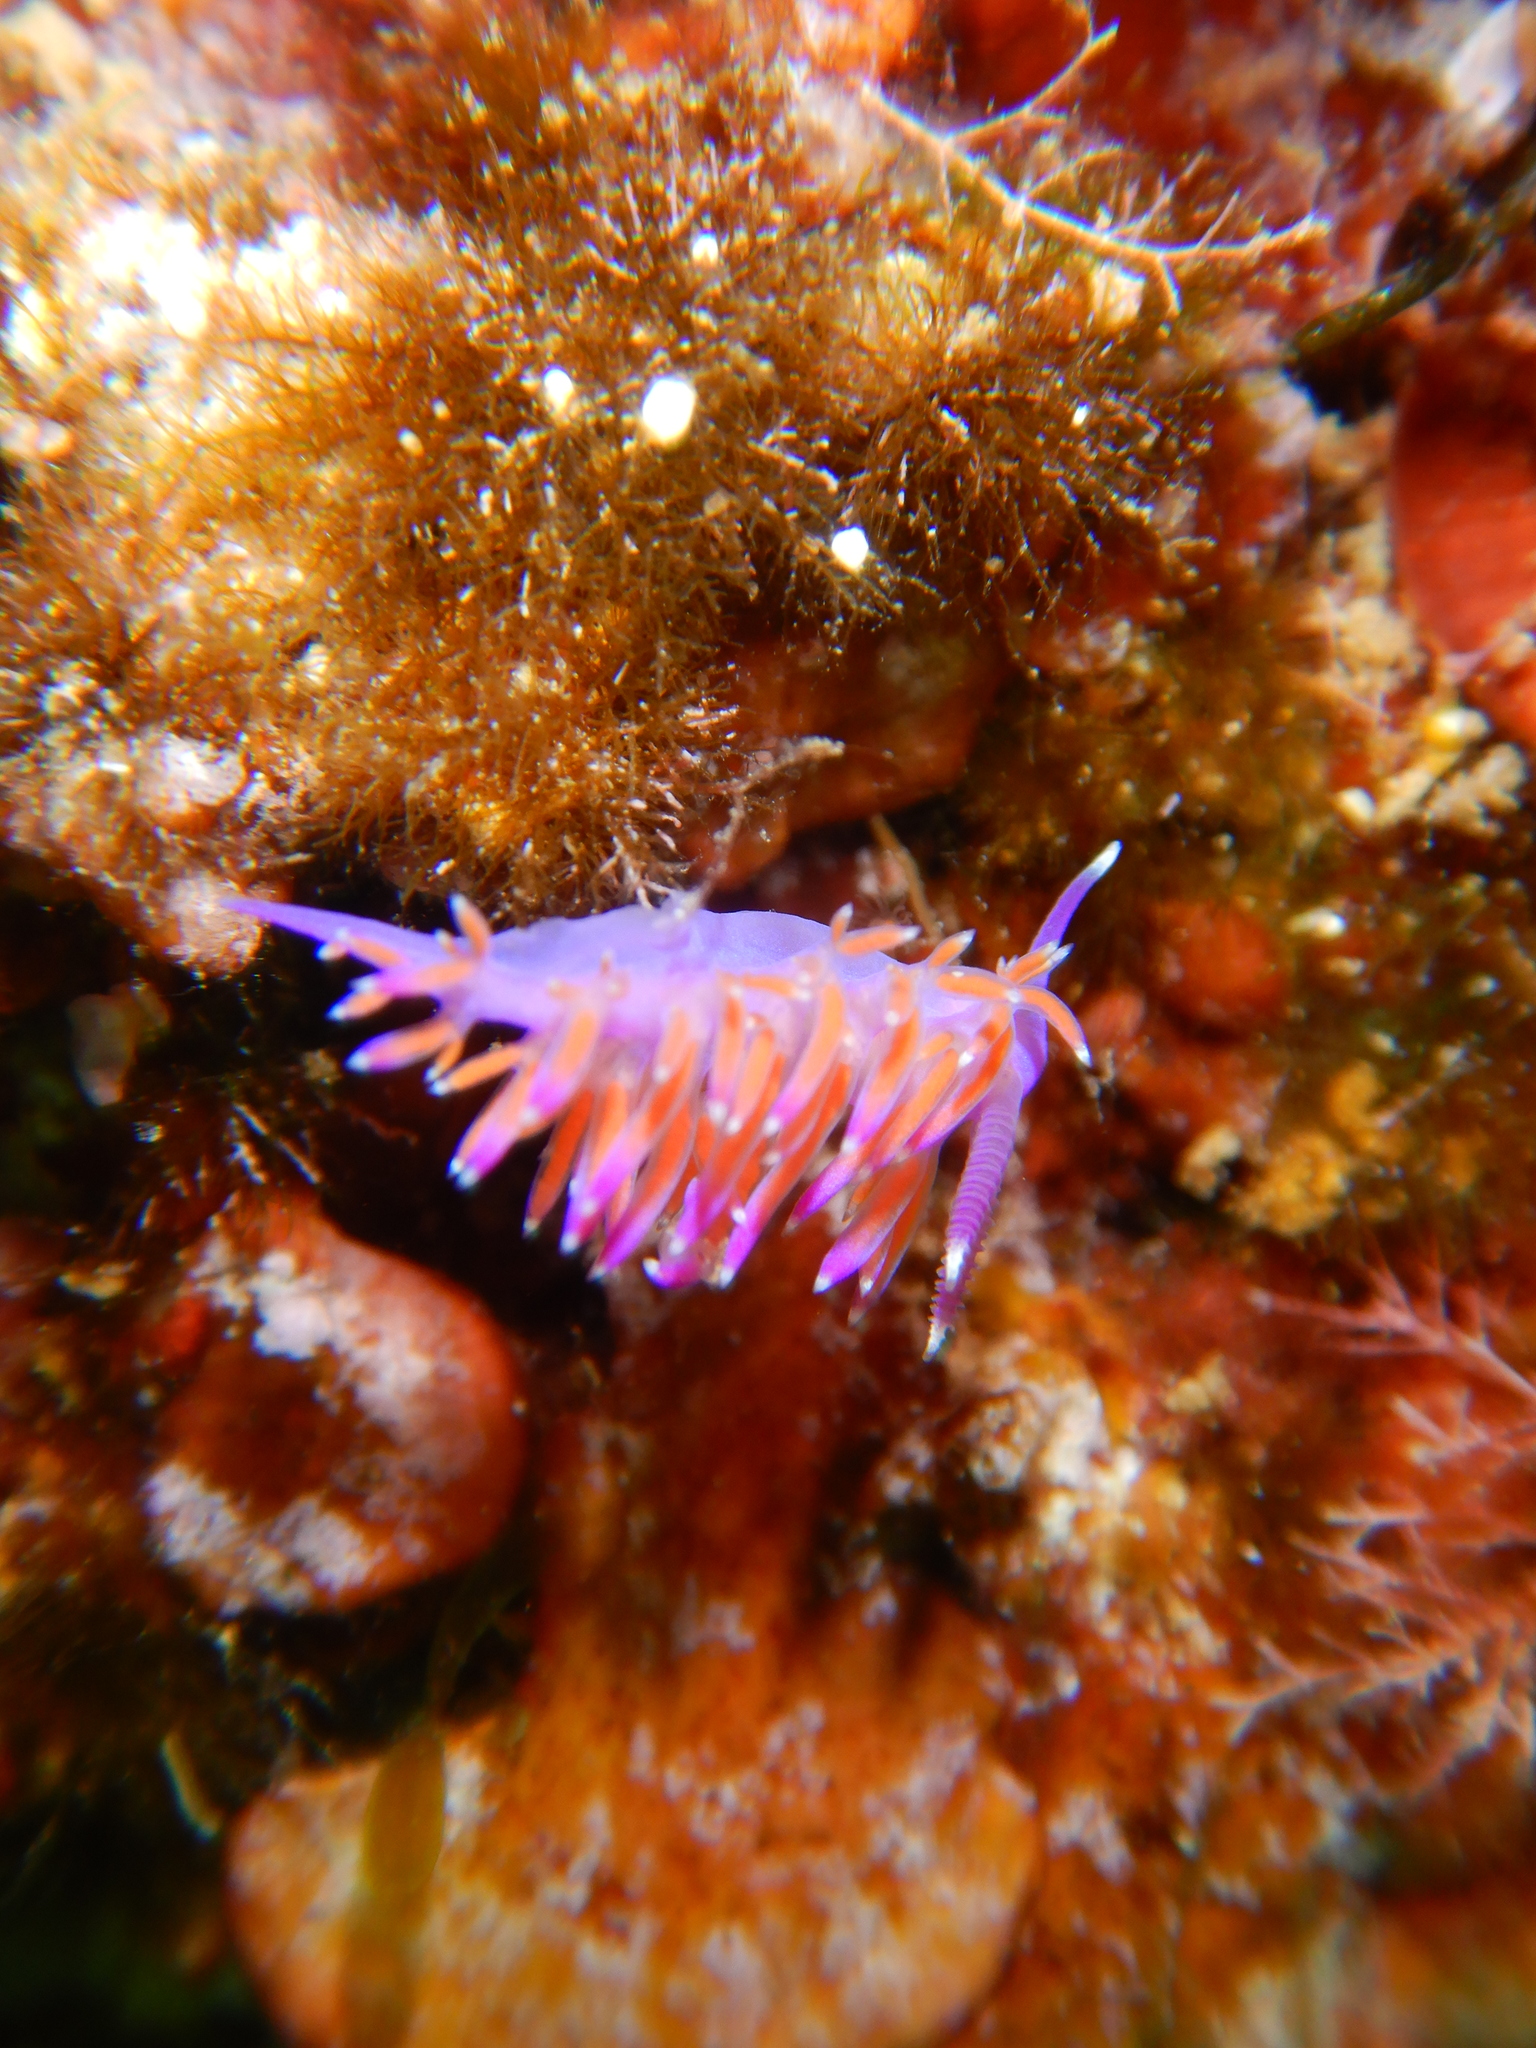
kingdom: Animalia
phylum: Mollusca
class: Gastropoda
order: Nudibranchia
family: Flabellinidae
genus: Flabellina
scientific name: Flabellina affinis
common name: Mediterranean violet aeolid
